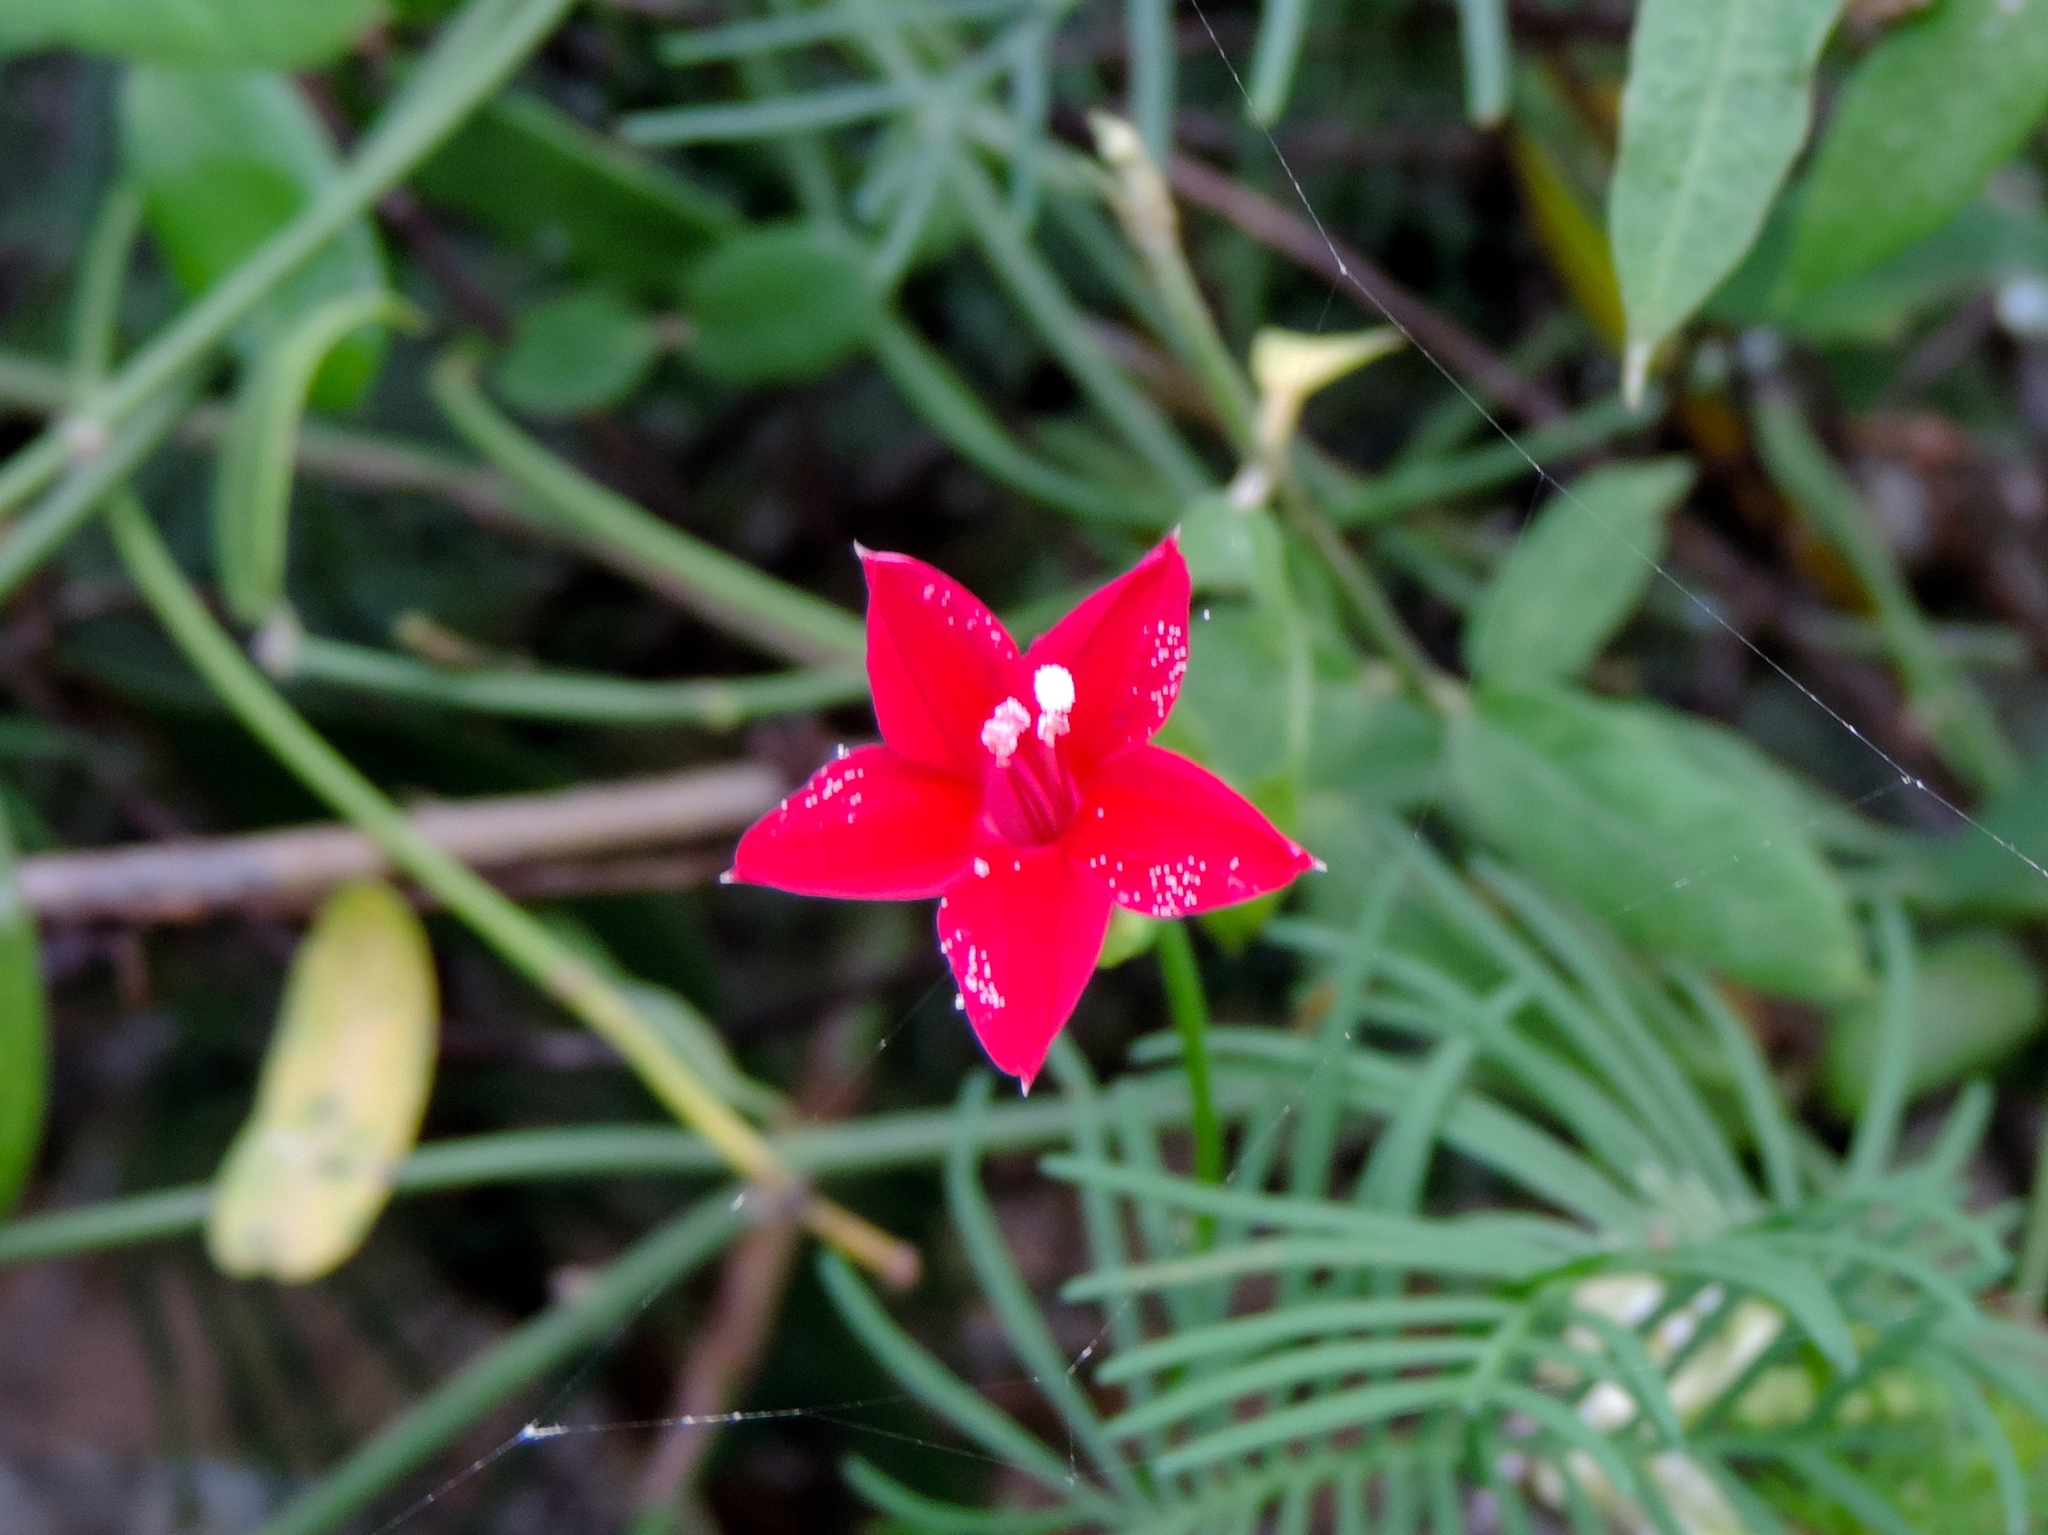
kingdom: Plantae
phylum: Tracheophyta
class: Magnoliopsida
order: Solanales
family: Convolvulaceae
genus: Ipomoea
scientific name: Ipomoea quamoclit
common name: Cypress vine
